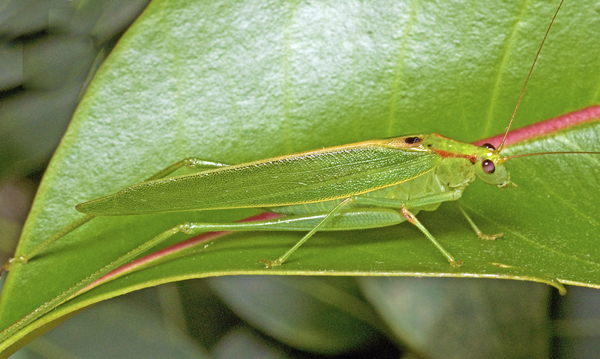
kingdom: Animalia
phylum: Arthropoda
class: Insecta
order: Orthoptera
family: Tettigoniidae
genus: Polichne
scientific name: Polichne
